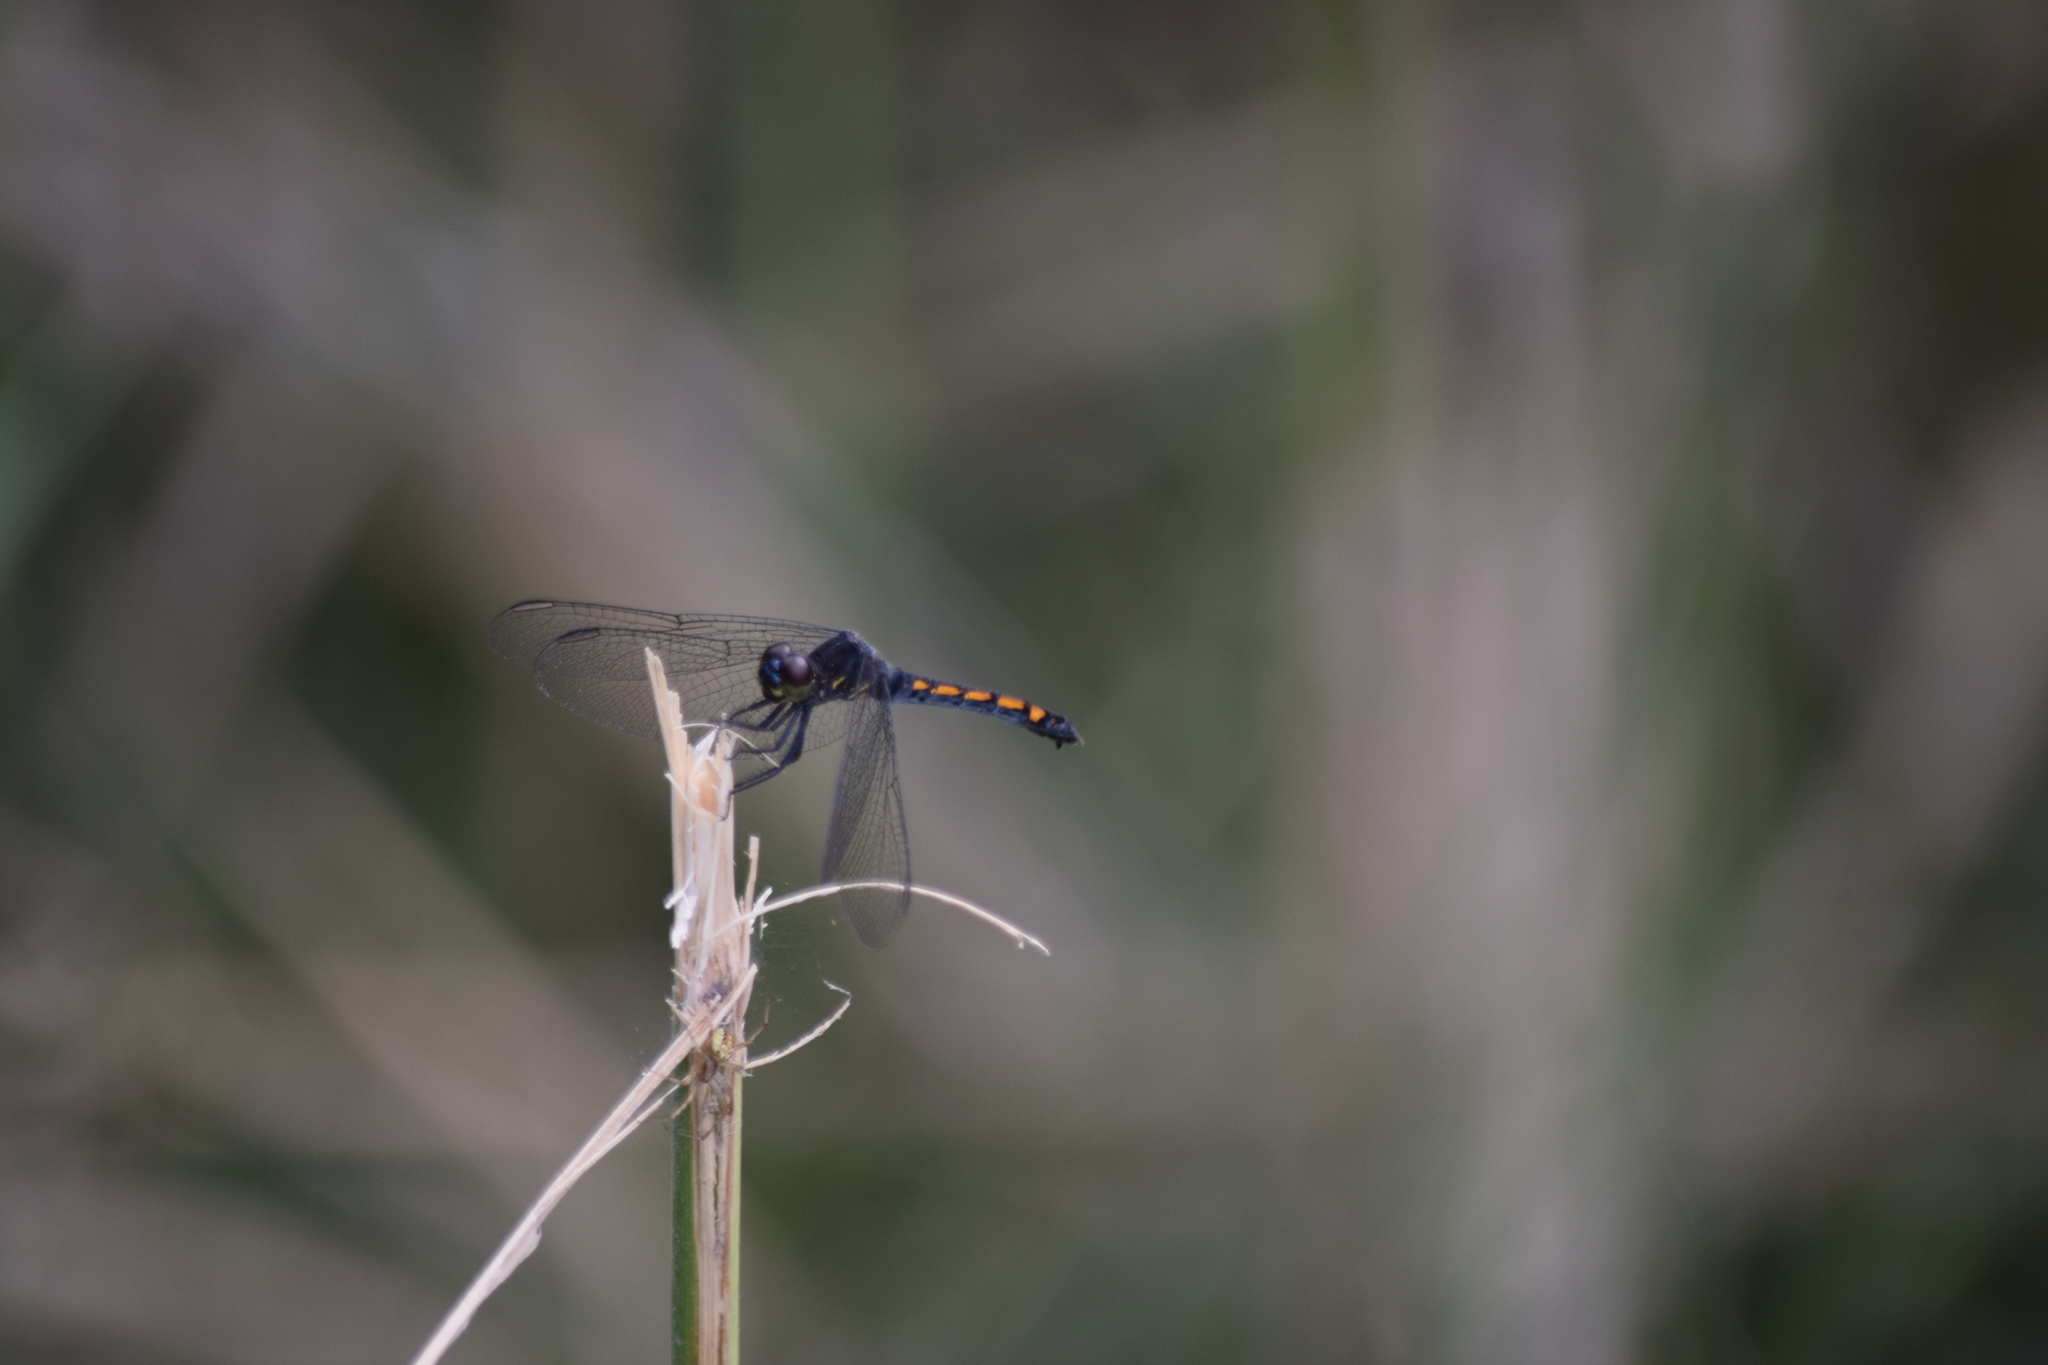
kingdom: Animalia
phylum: Arthropoda
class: Insecta
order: Odonata
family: Libellulidae
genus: Erythrodiplax
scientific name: Erythrodiplax berenice
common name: Seaside dragonlet
